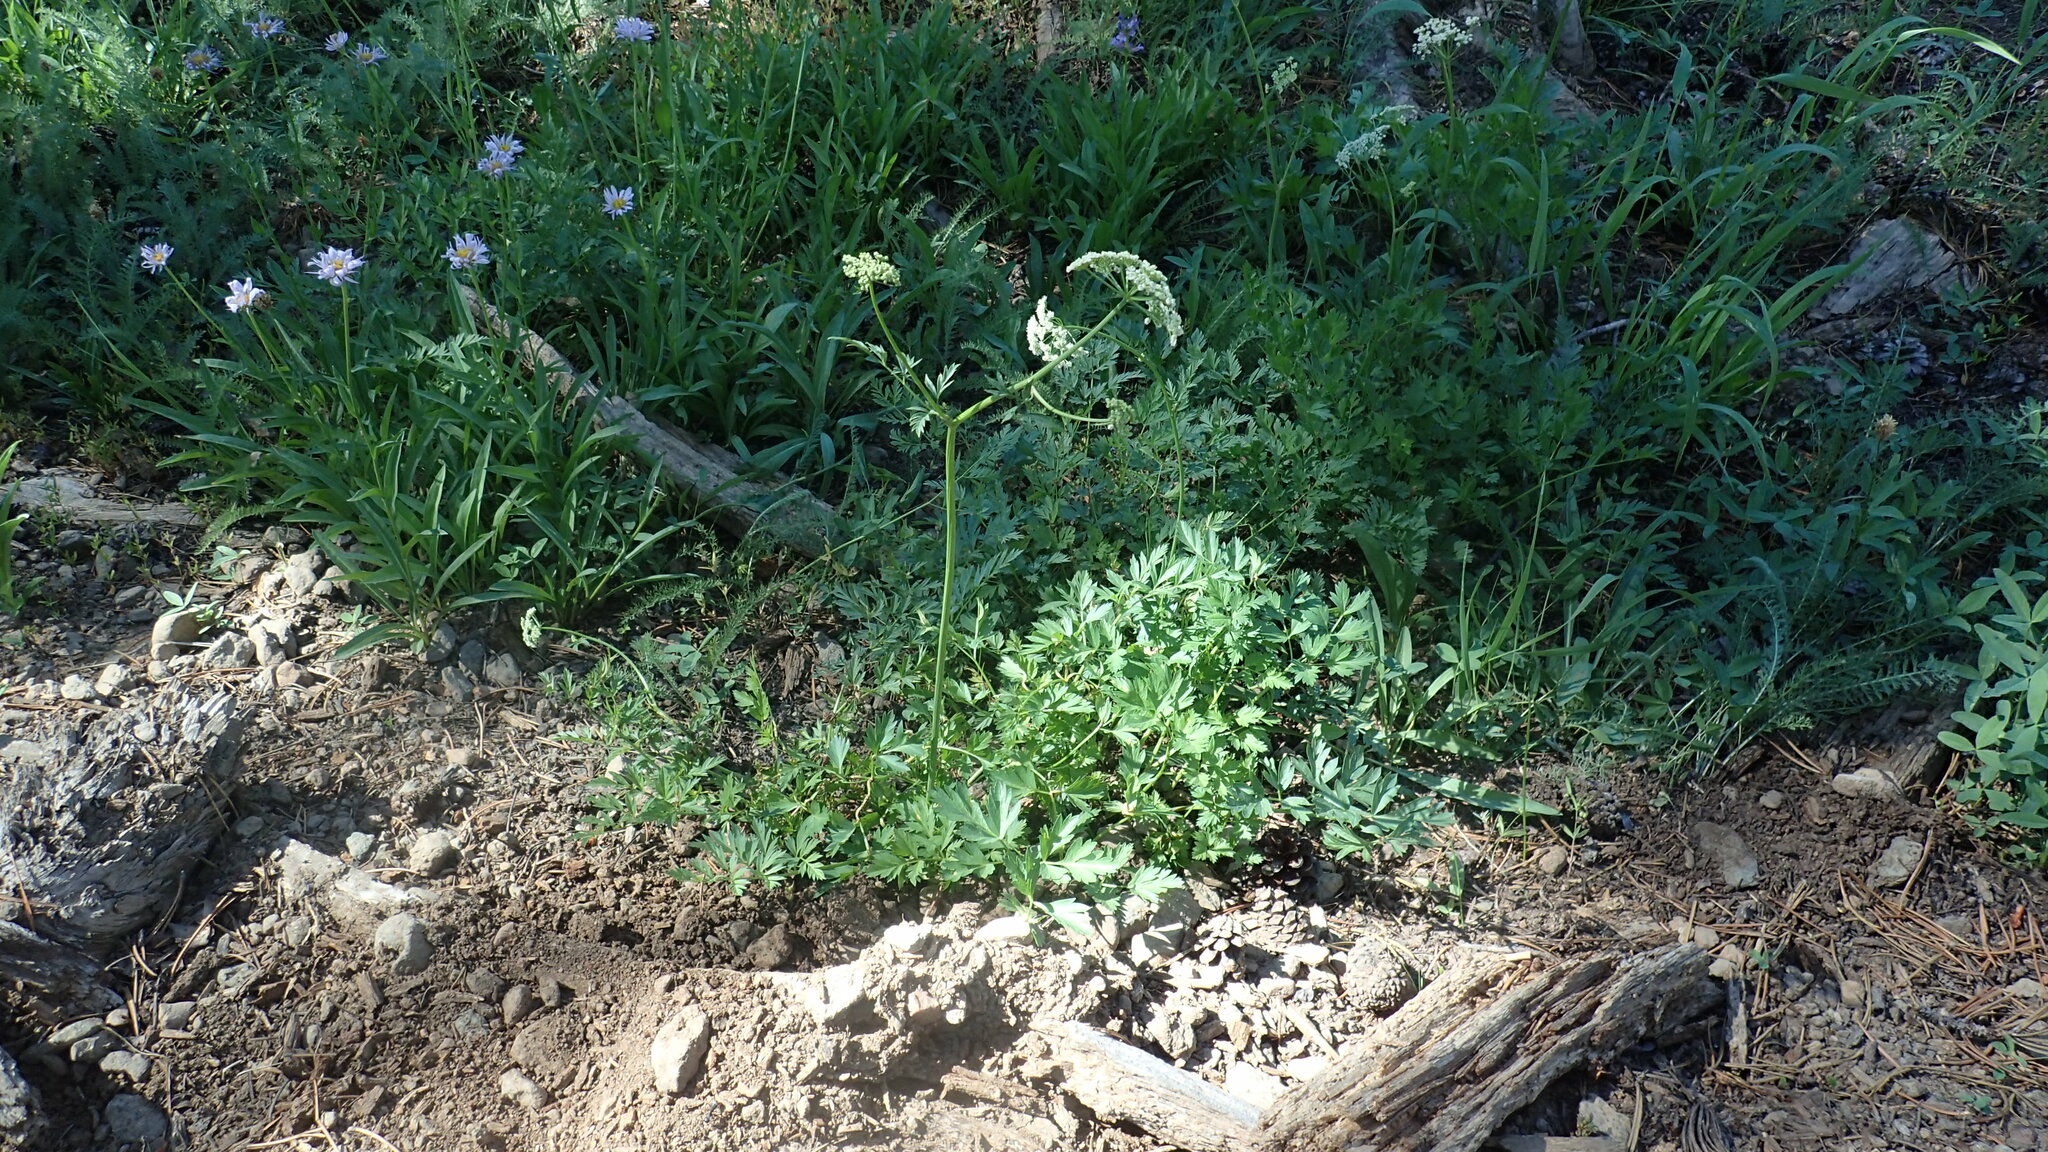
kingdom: Plantae
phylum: Tracheophyta
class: Magnoliopsida
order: Apiales
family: Apiaceae
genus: Ligusticum
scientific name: Ligusticum grayi
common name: Gray's licorice-root
